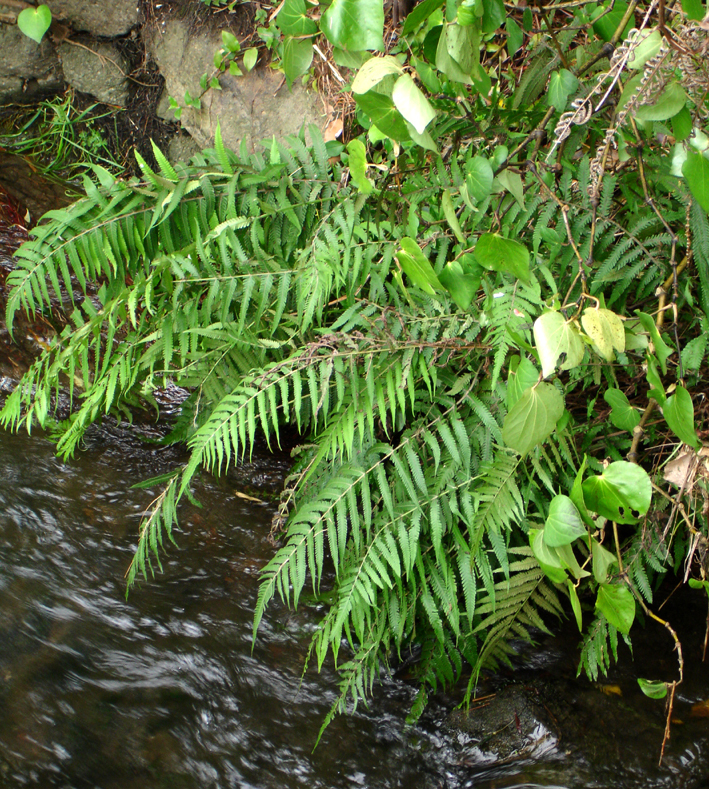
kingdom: Plantae
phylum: Tracheophyta
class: Polypodiopsida
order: Polypodiales
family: Thelypteridaceae
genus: Christella
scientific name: Christella dentata
